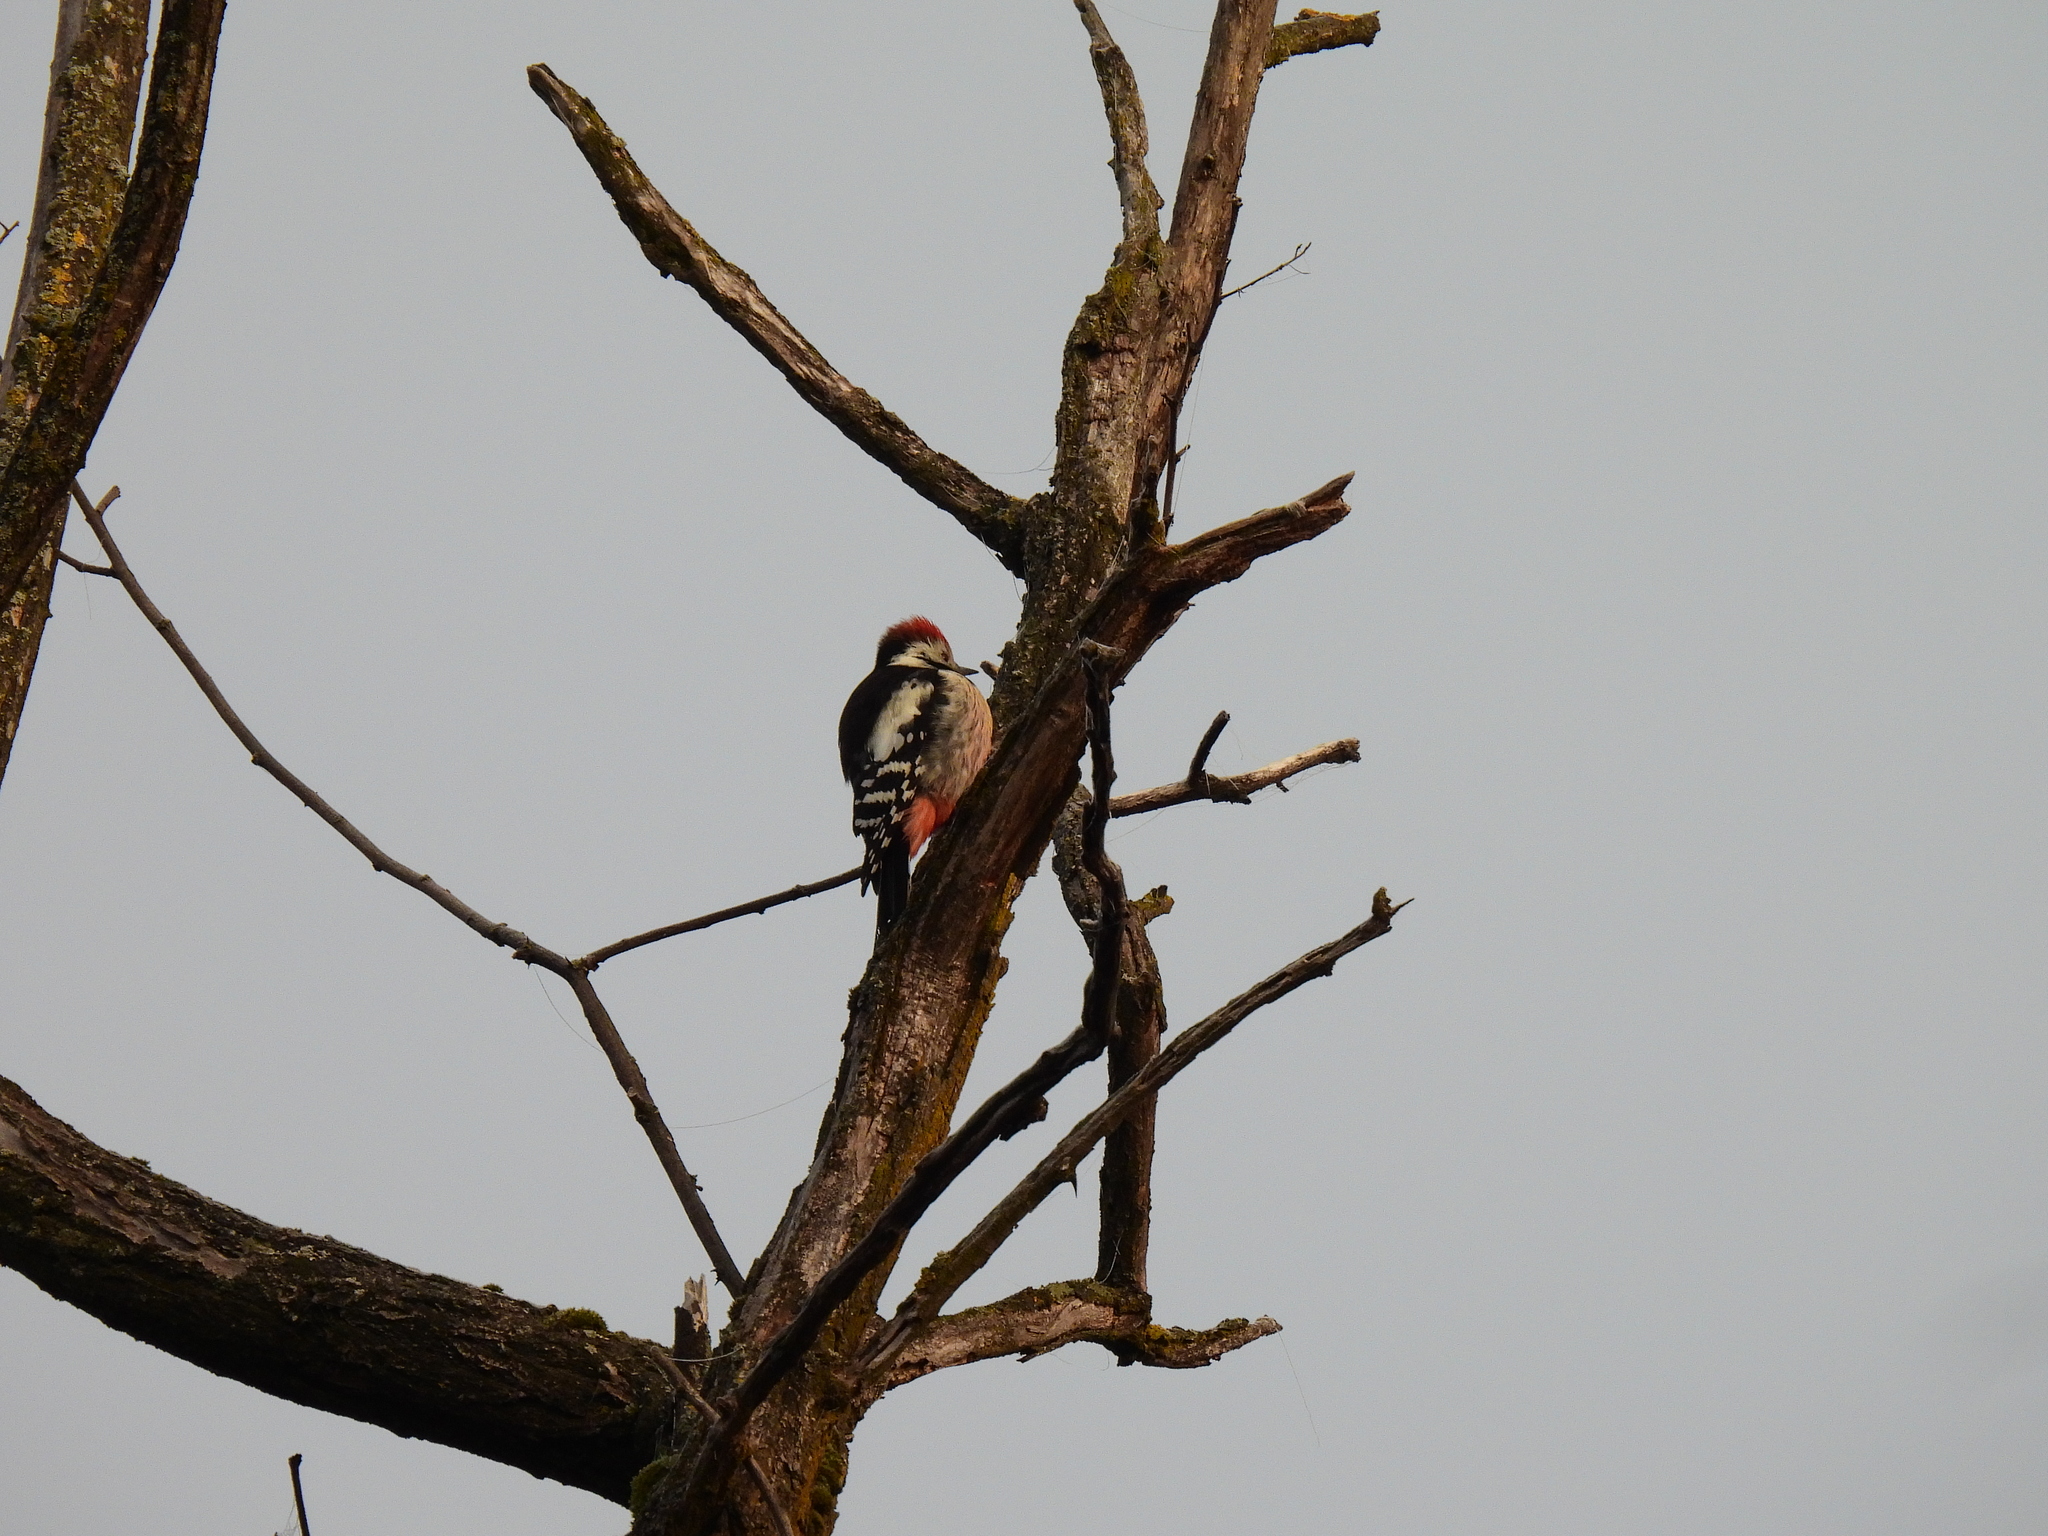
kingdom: Animalia
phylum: Chordata
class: Aves
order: Piciformes
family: Picidae
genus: Dendrocoptes
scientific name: Dendrocoptes medius
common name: Middle spotted woodpecker
